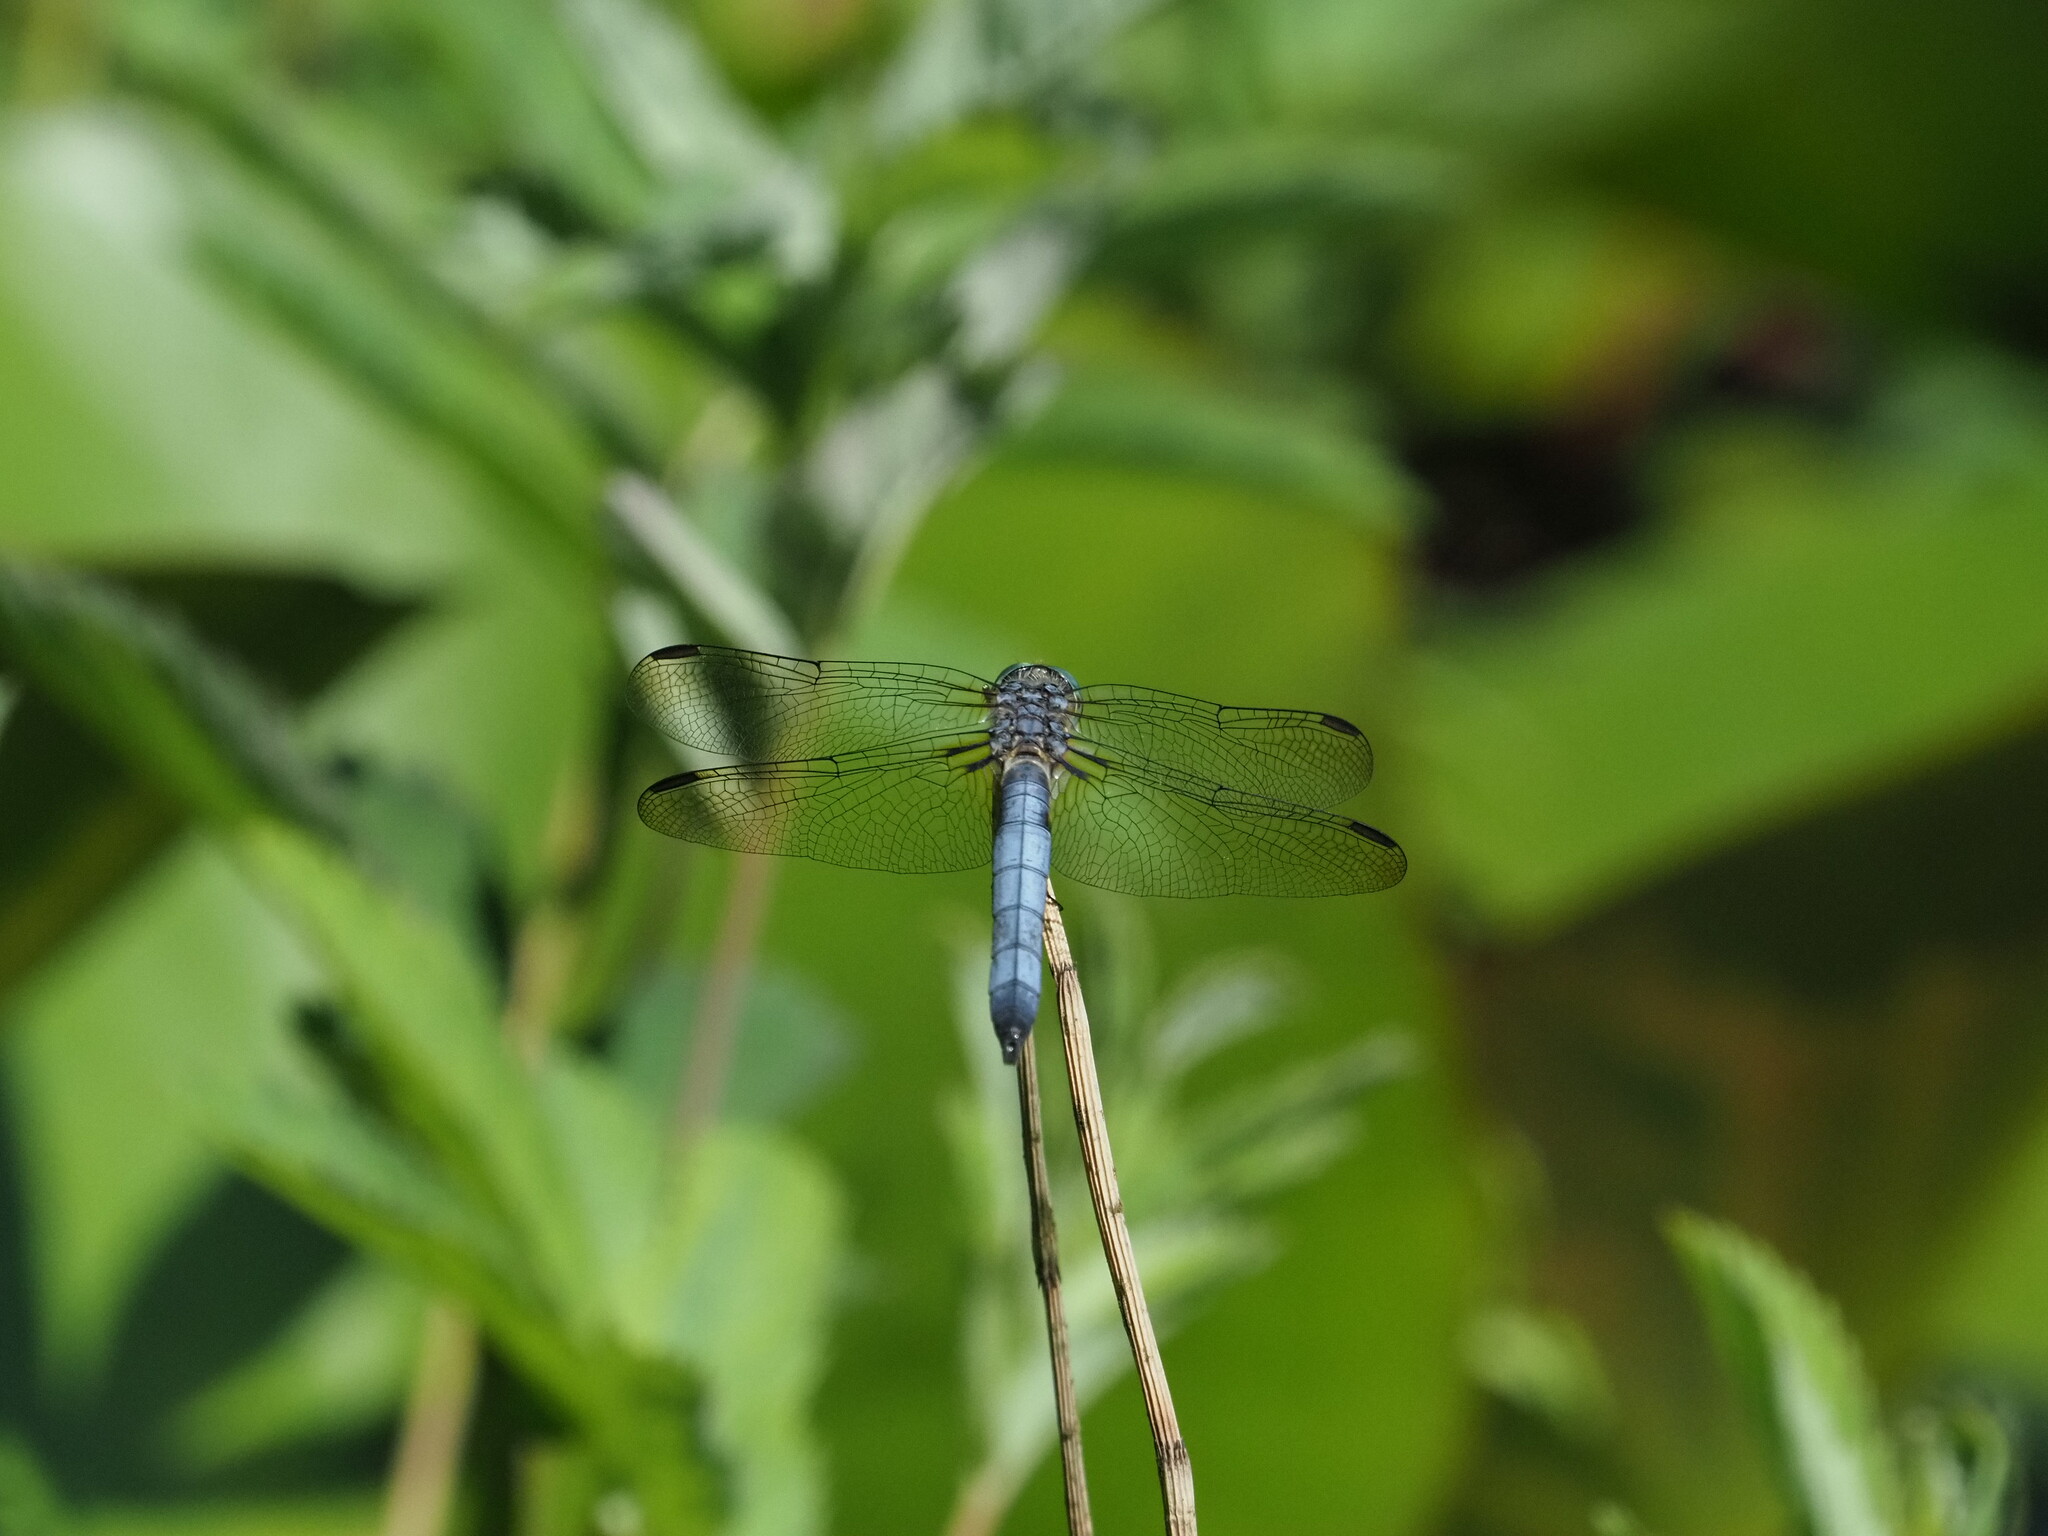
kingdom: Animalia
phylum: Arthropoda
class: Insecta
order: Odonata
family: Libellulidae
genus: Pachydiplax
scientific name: Pachydiplax longipennis
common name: Blue dasher
